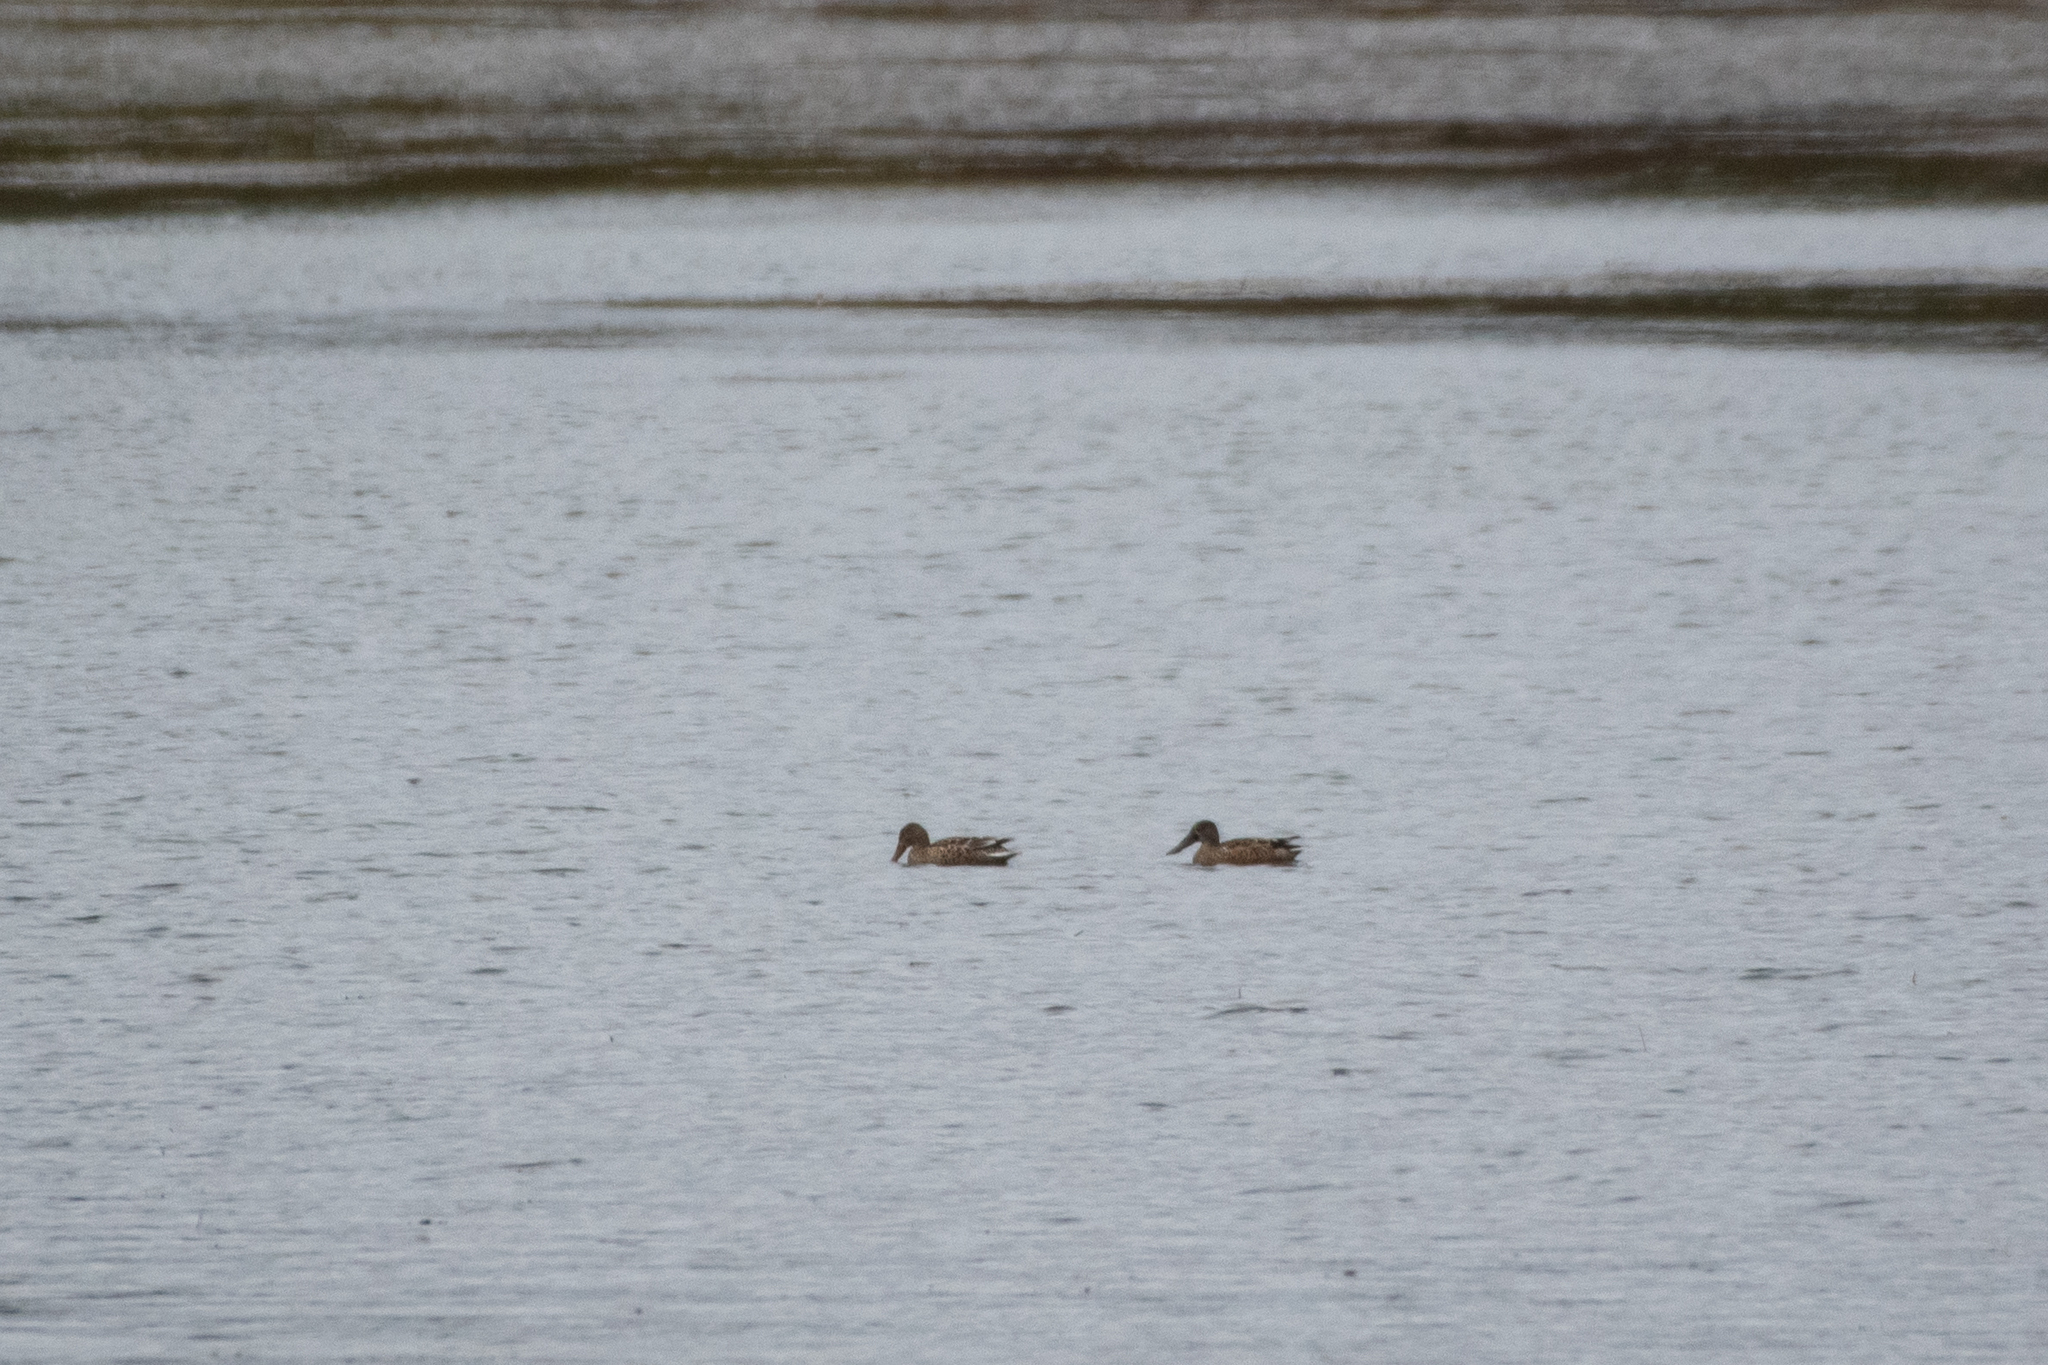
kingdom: Animalia
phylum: Chordata
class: Aves
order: Anseriformes
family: Anatidae
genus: Spatula
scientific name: Spatula clypeata
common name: Northern shoveler
